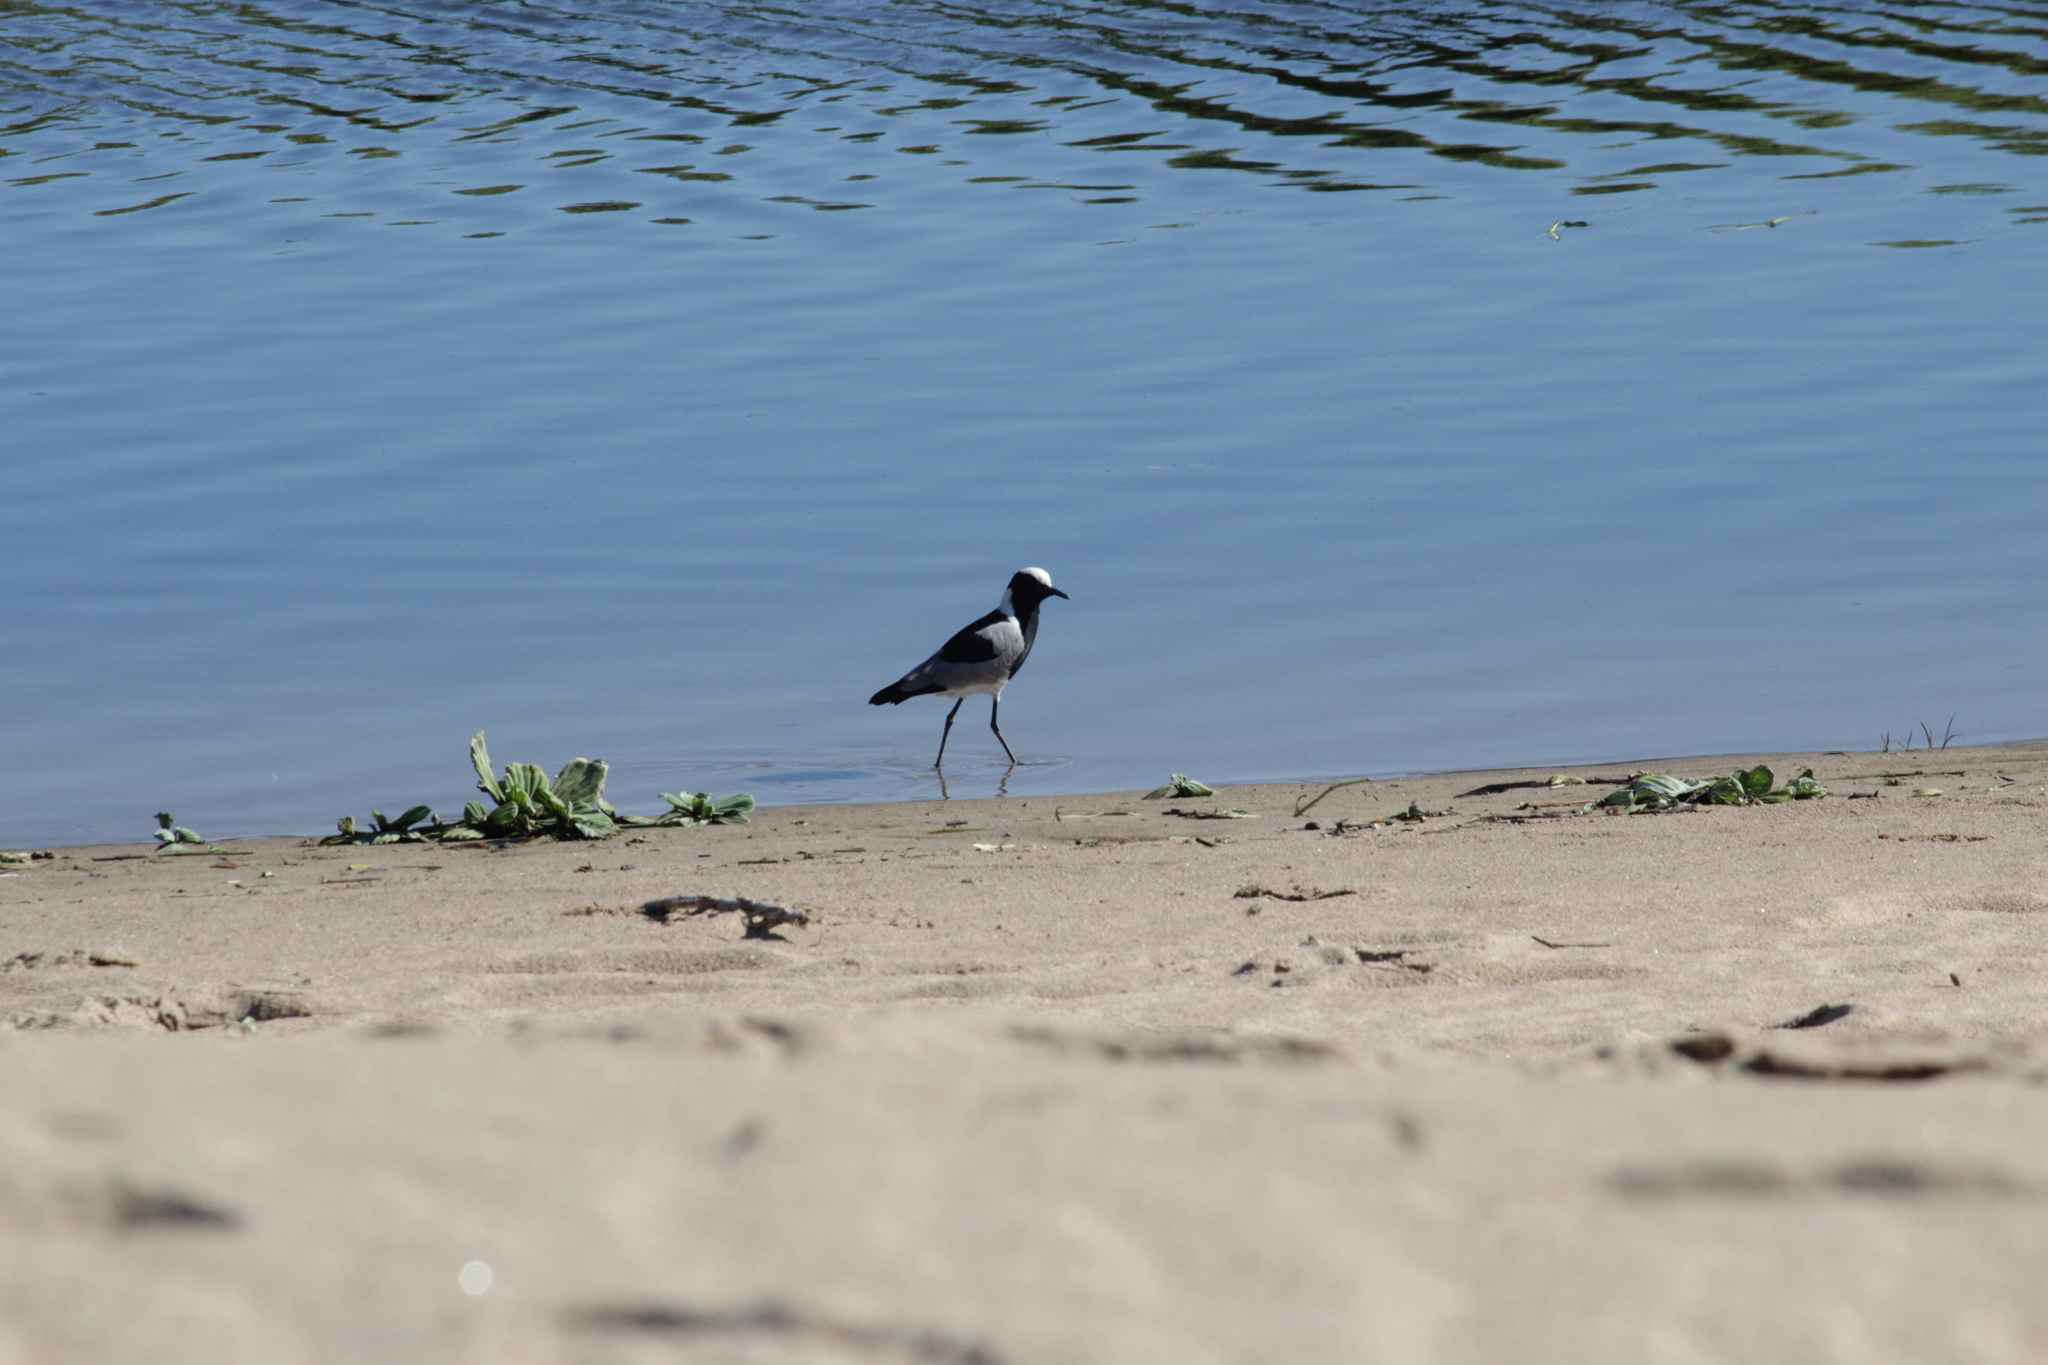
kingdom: Animalia
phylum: Chordata
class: Aves
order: Charadriiformes
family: Charadriidae
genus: Vanellus
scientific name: Vanellus armatus
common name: Blacksmith lapwing
